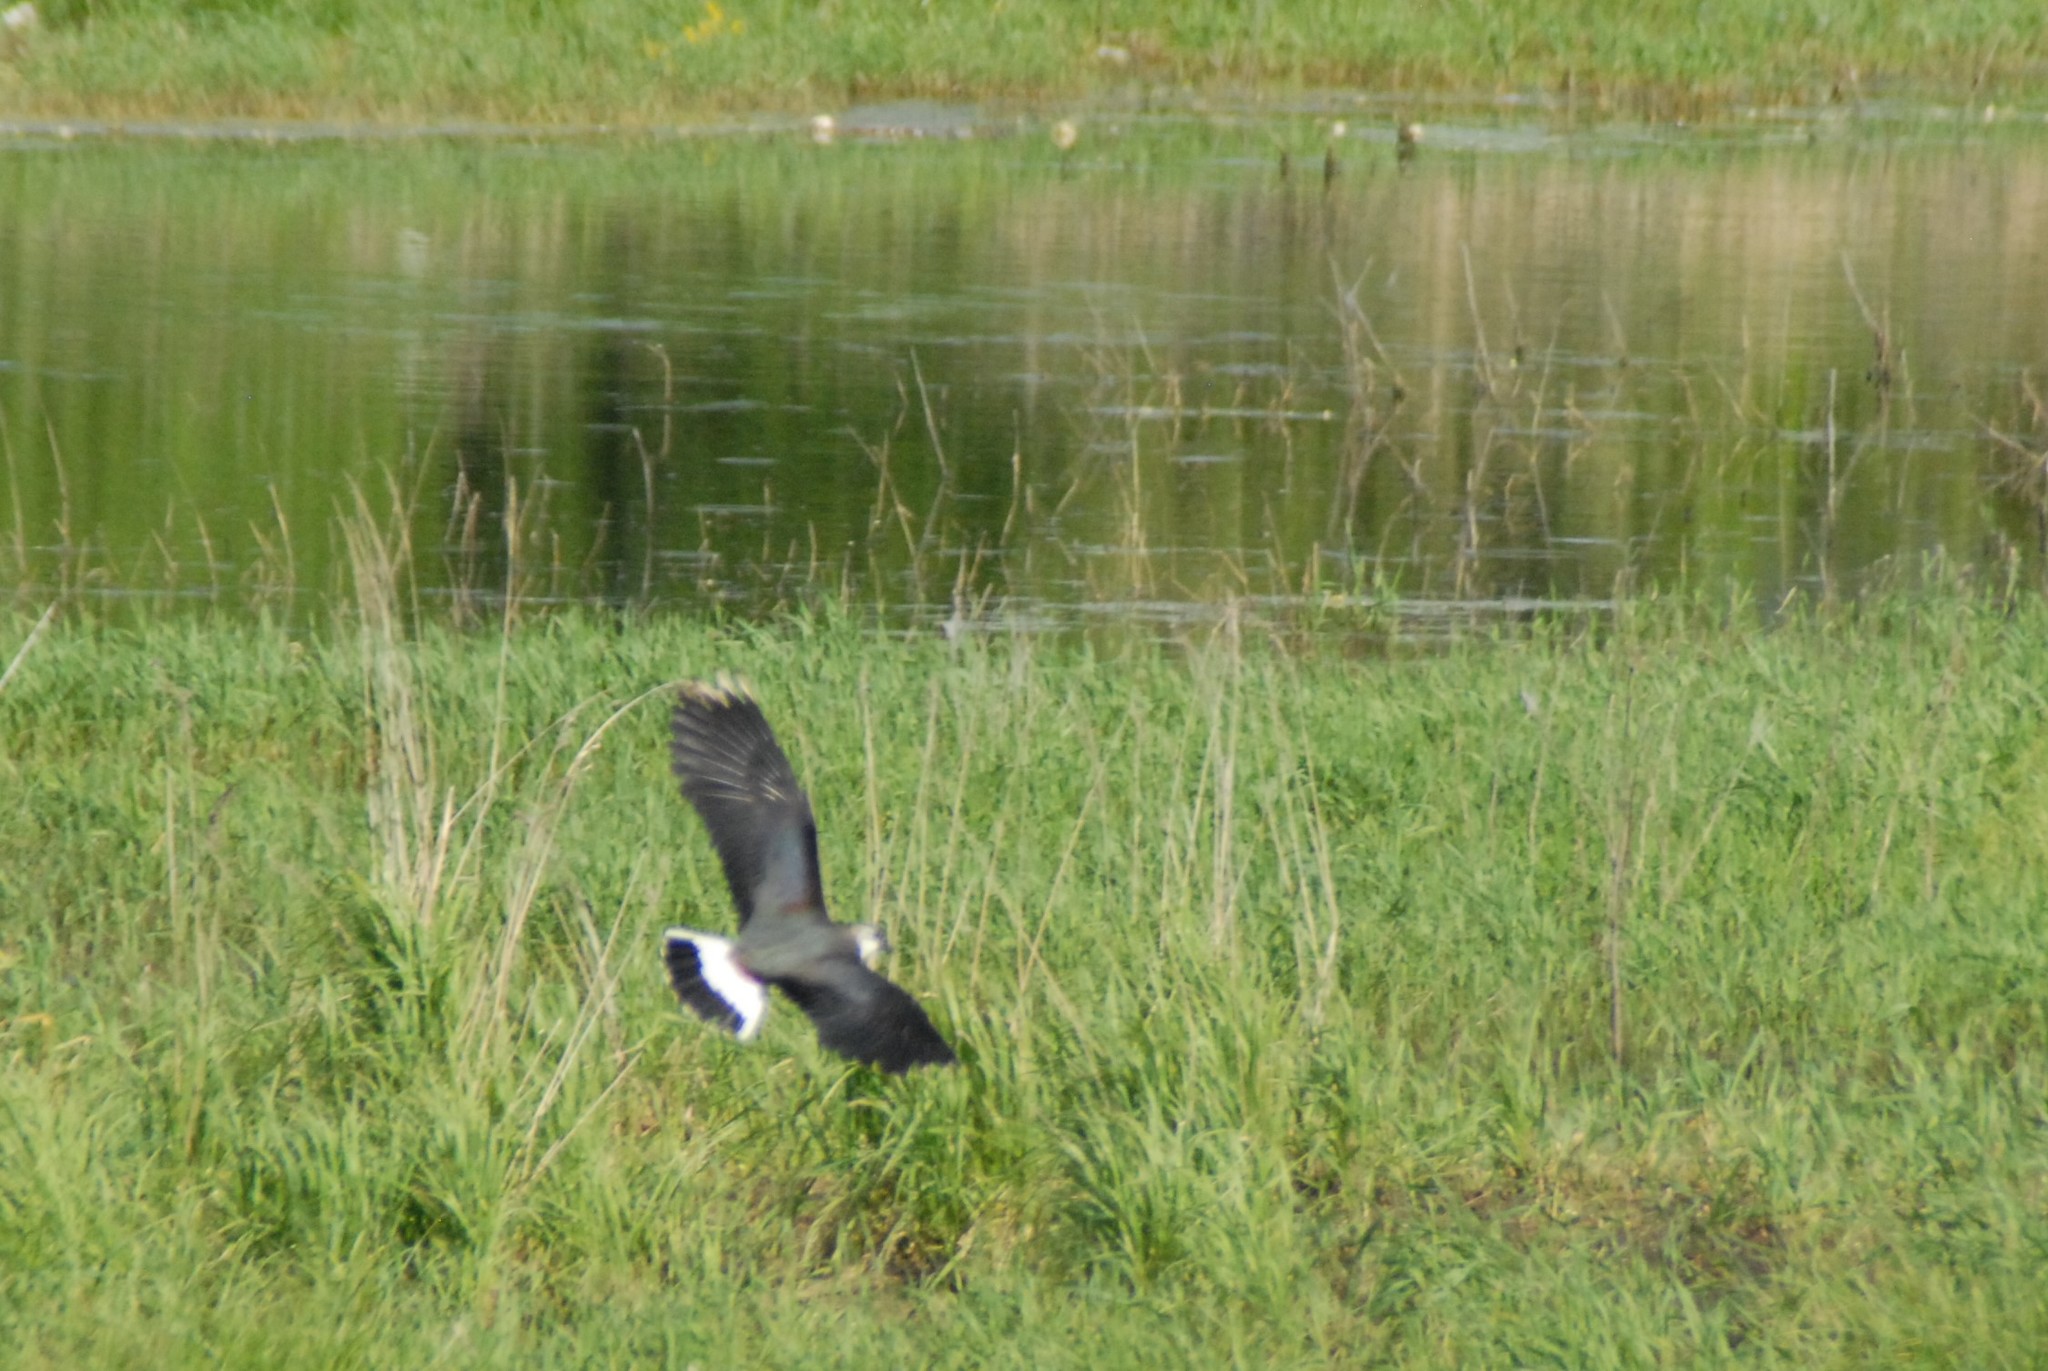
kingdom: Animalia
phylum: Chordata
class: Aves
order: Charadriiformes
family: Charadriidae
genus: Vanellus
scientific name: Vanellus vanellus
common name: Northern lapwing
